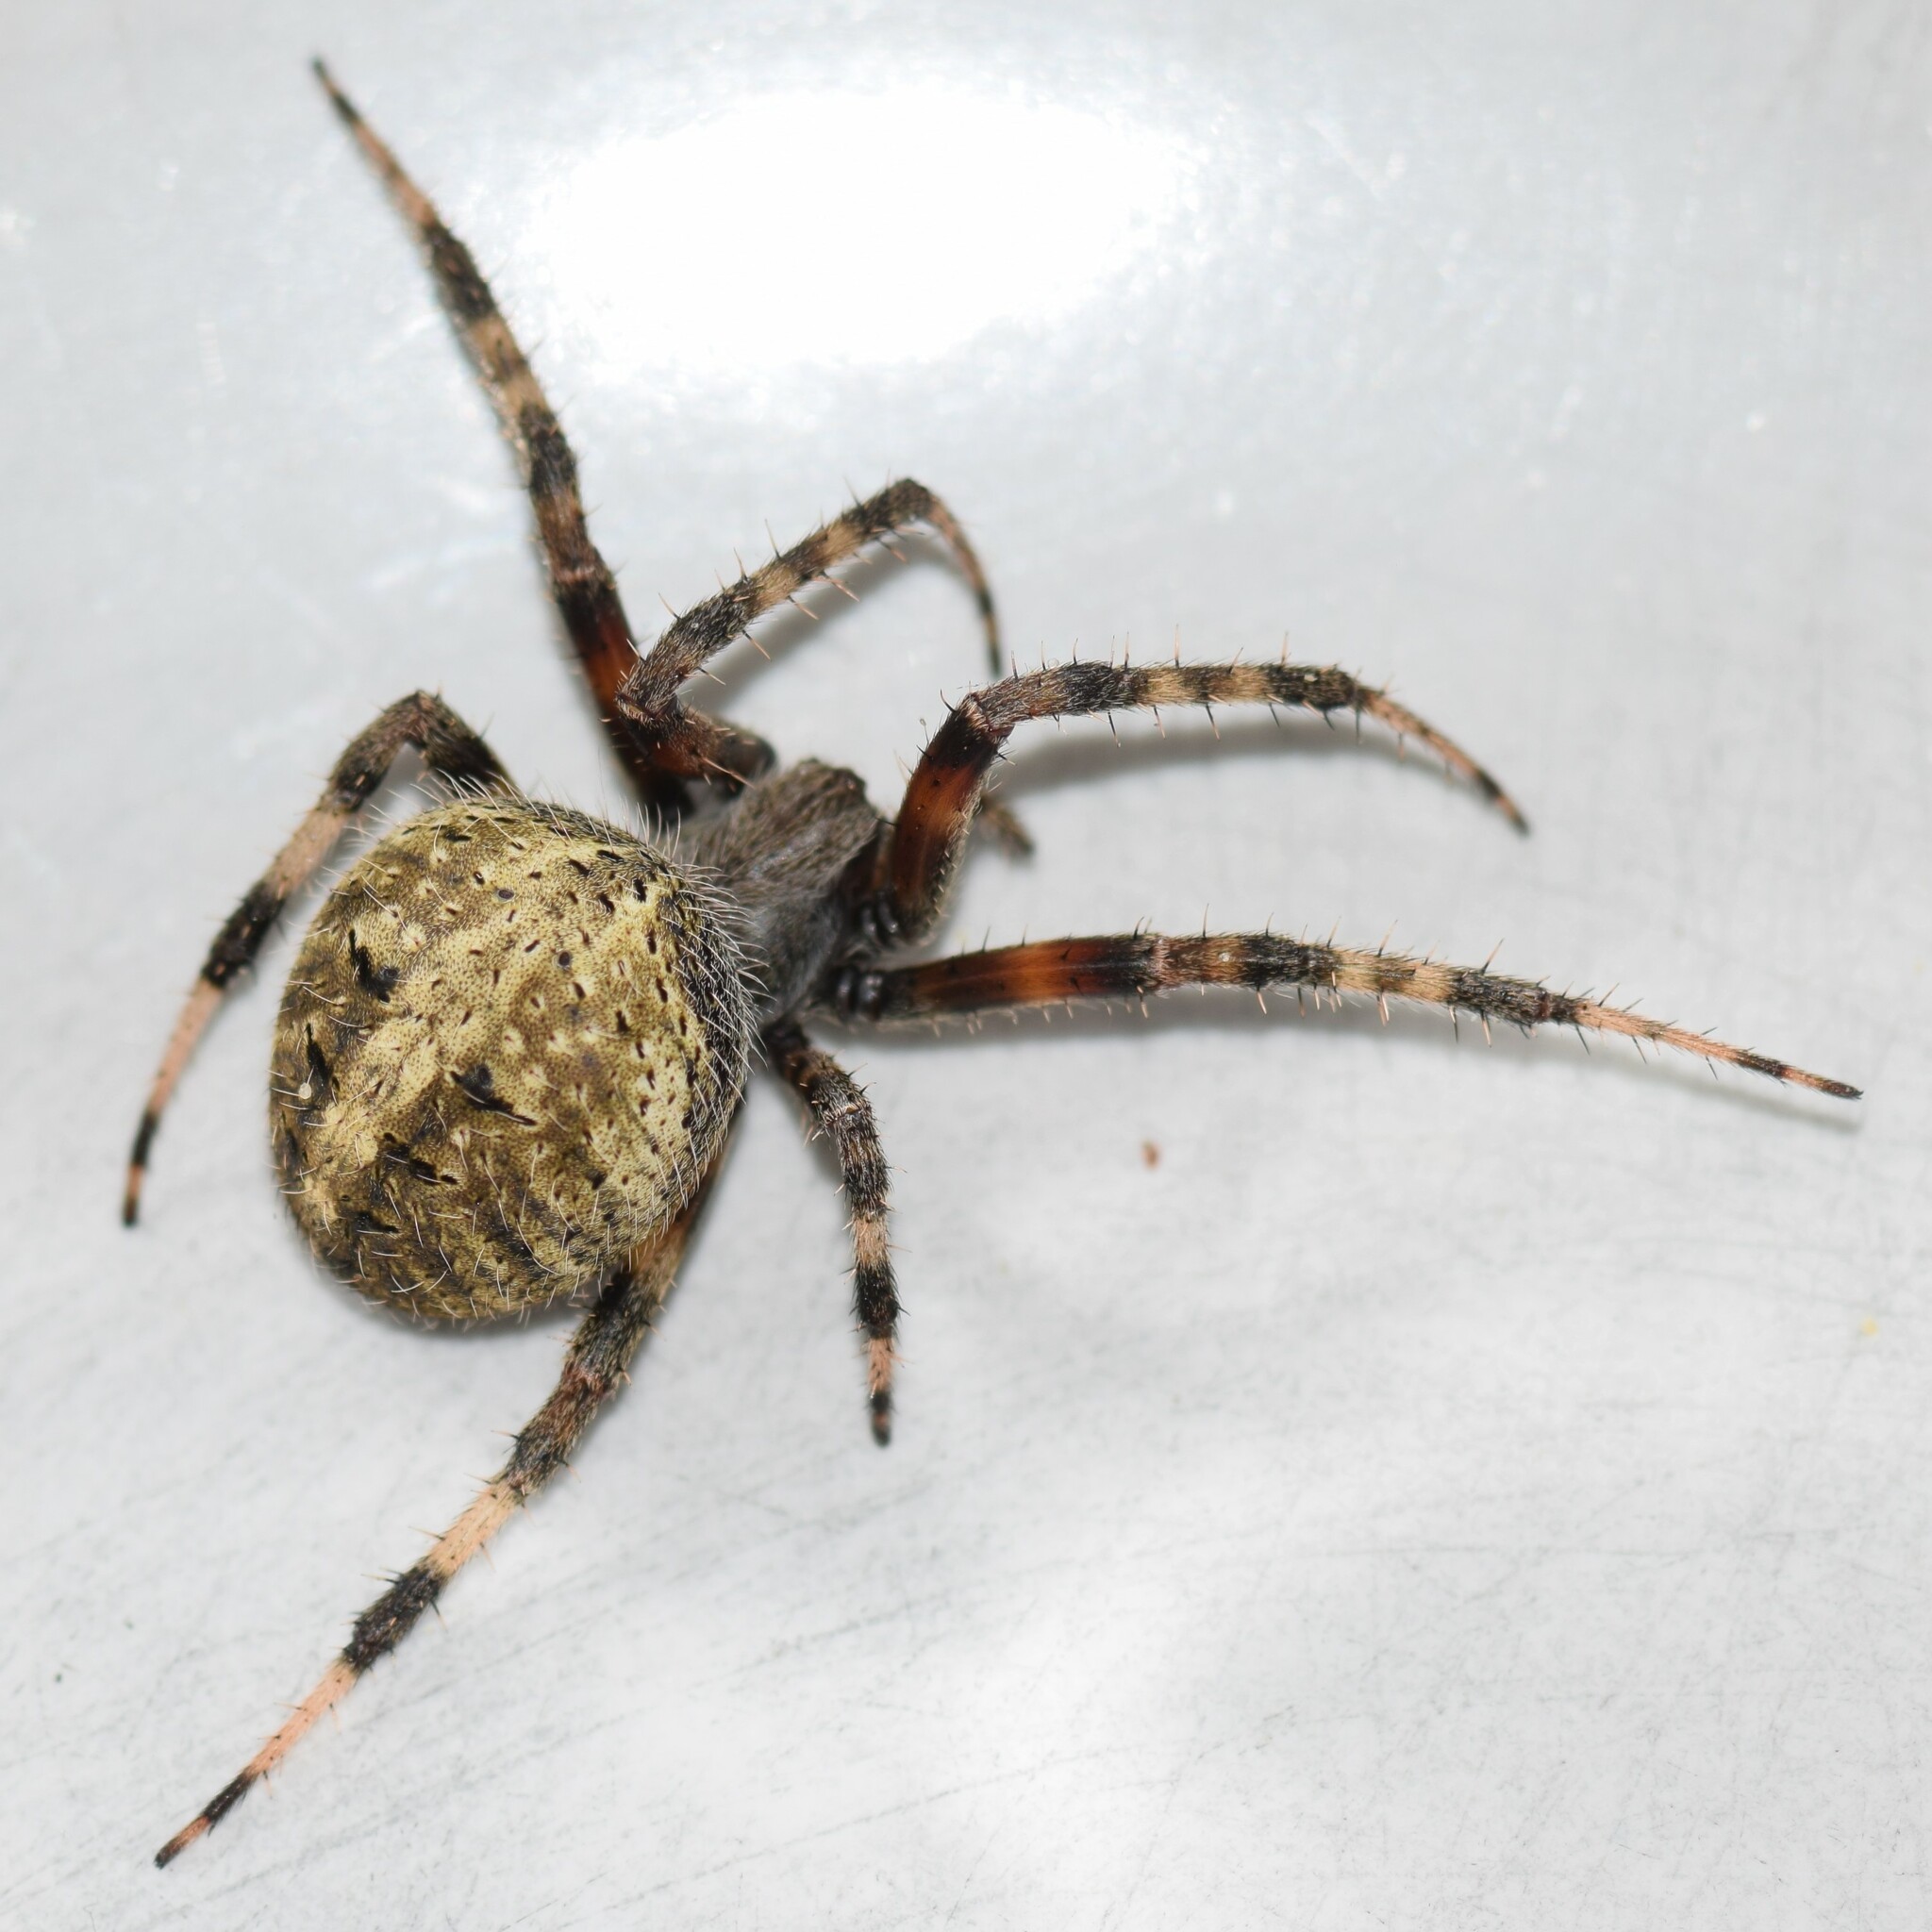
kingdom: Animalia
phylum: Arthropoda
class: Arachnida
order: Araneae
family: Araneidae
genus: Neoscona
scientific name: Neoscona domiciliorum
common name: Red-femured spotted orbweaver
